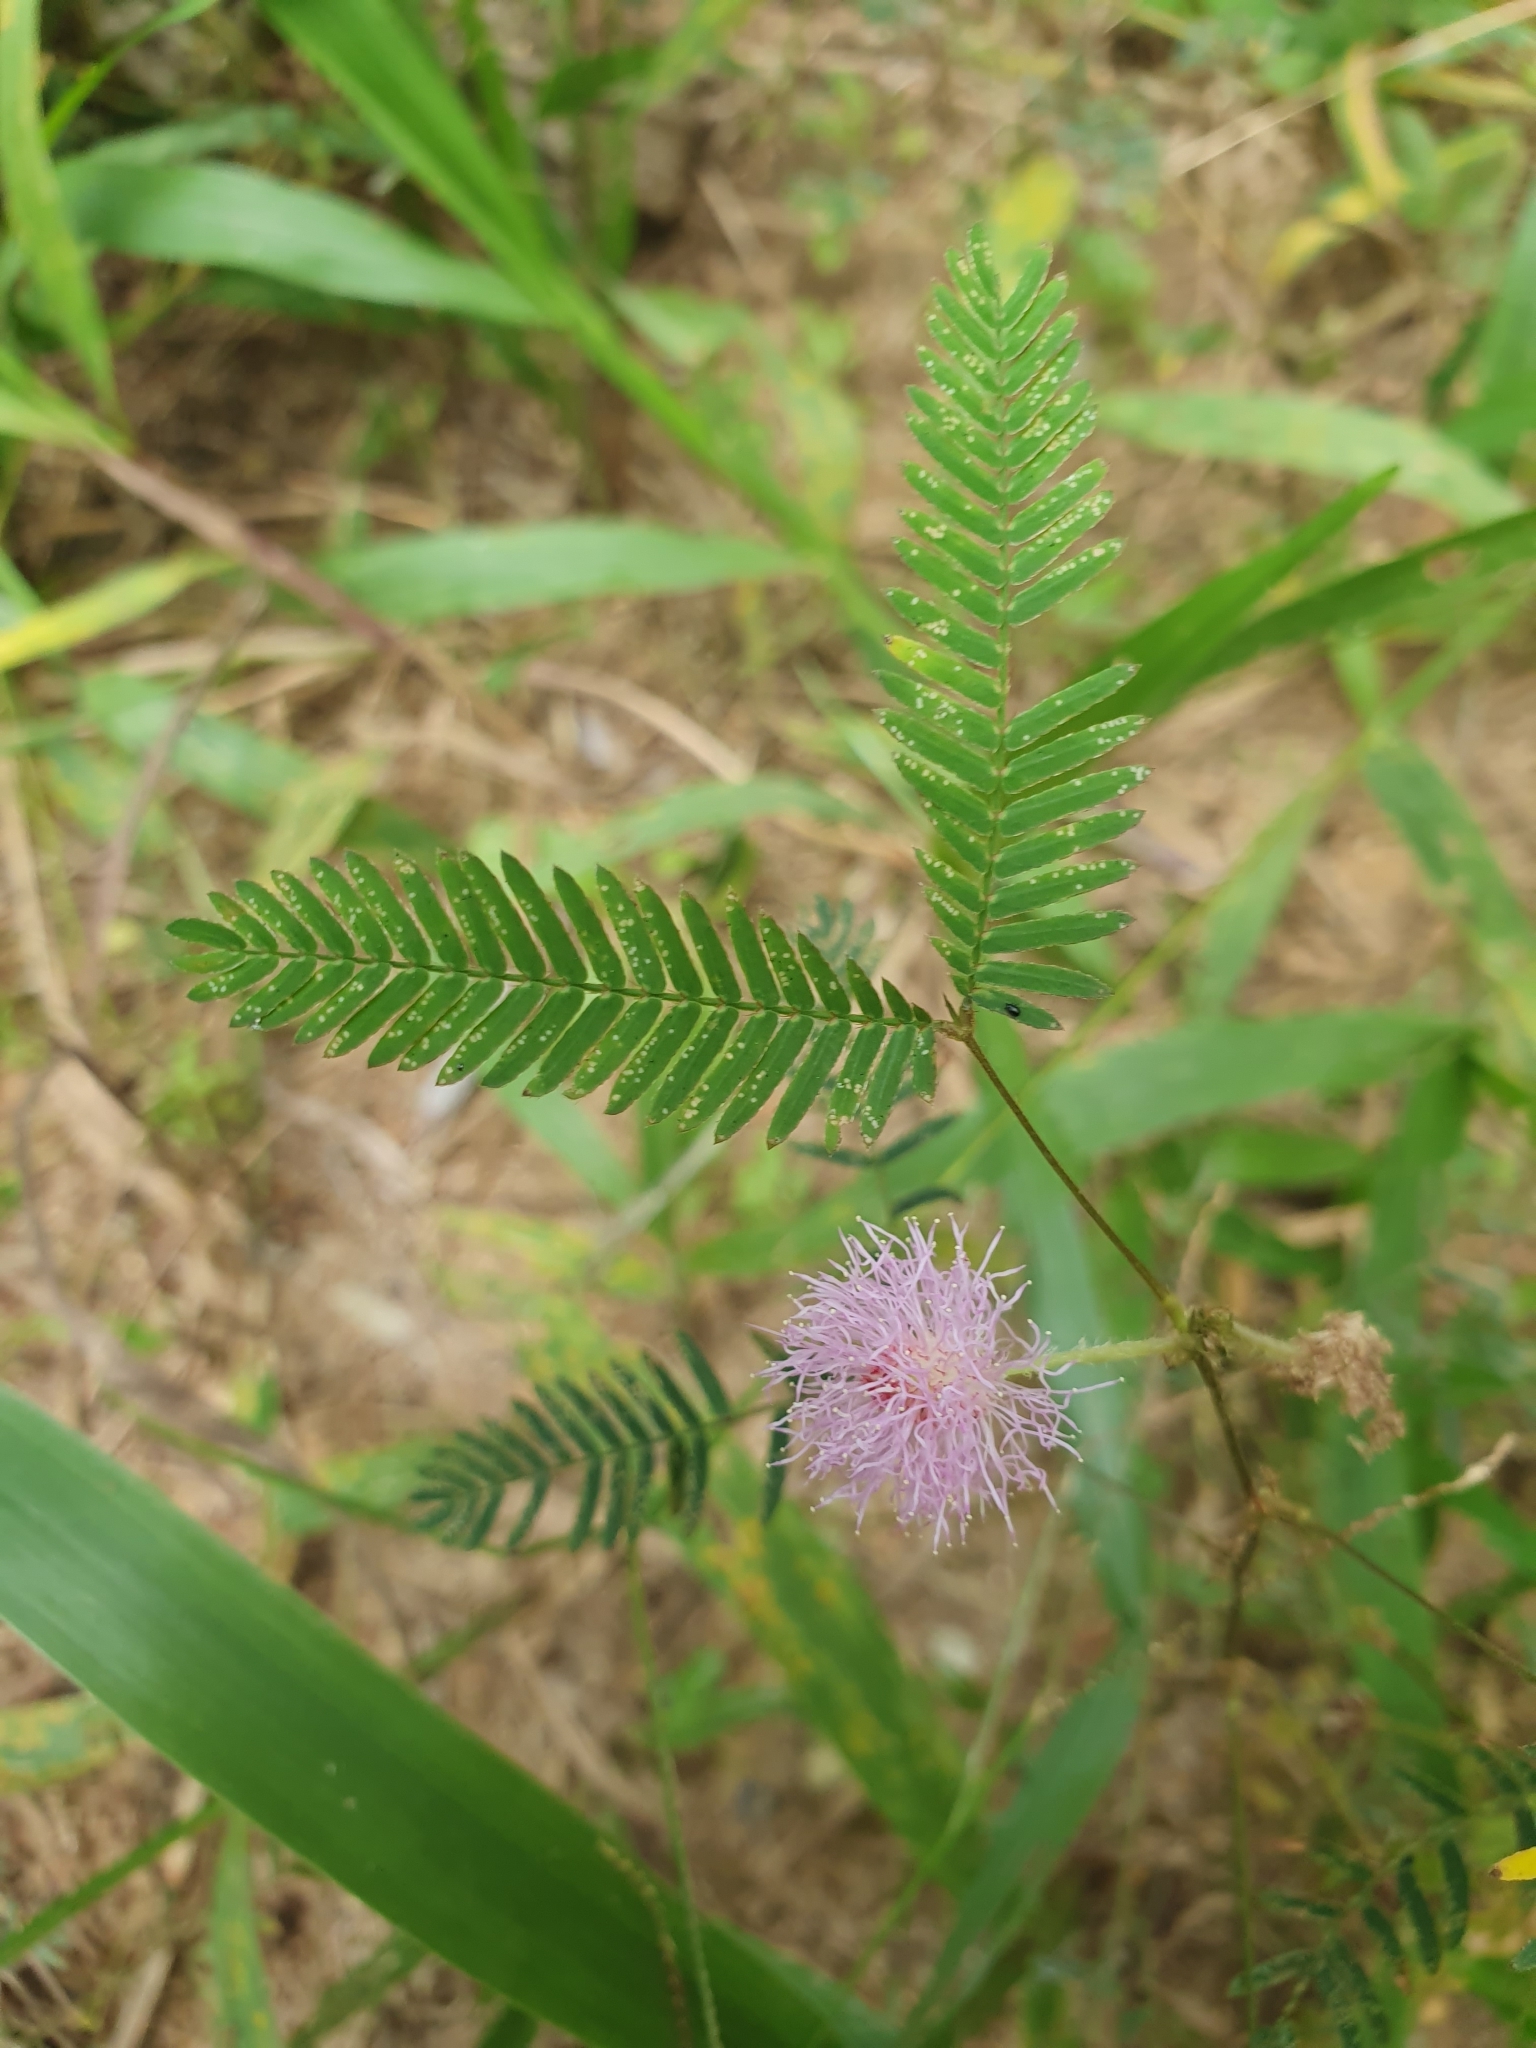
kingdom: Plantae
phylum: Tracheophyta
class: Magnoliopsida
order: Fabales
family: Fabaceae
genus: Mimosa
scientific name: Mimosa pudica
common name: Sensitive plant
